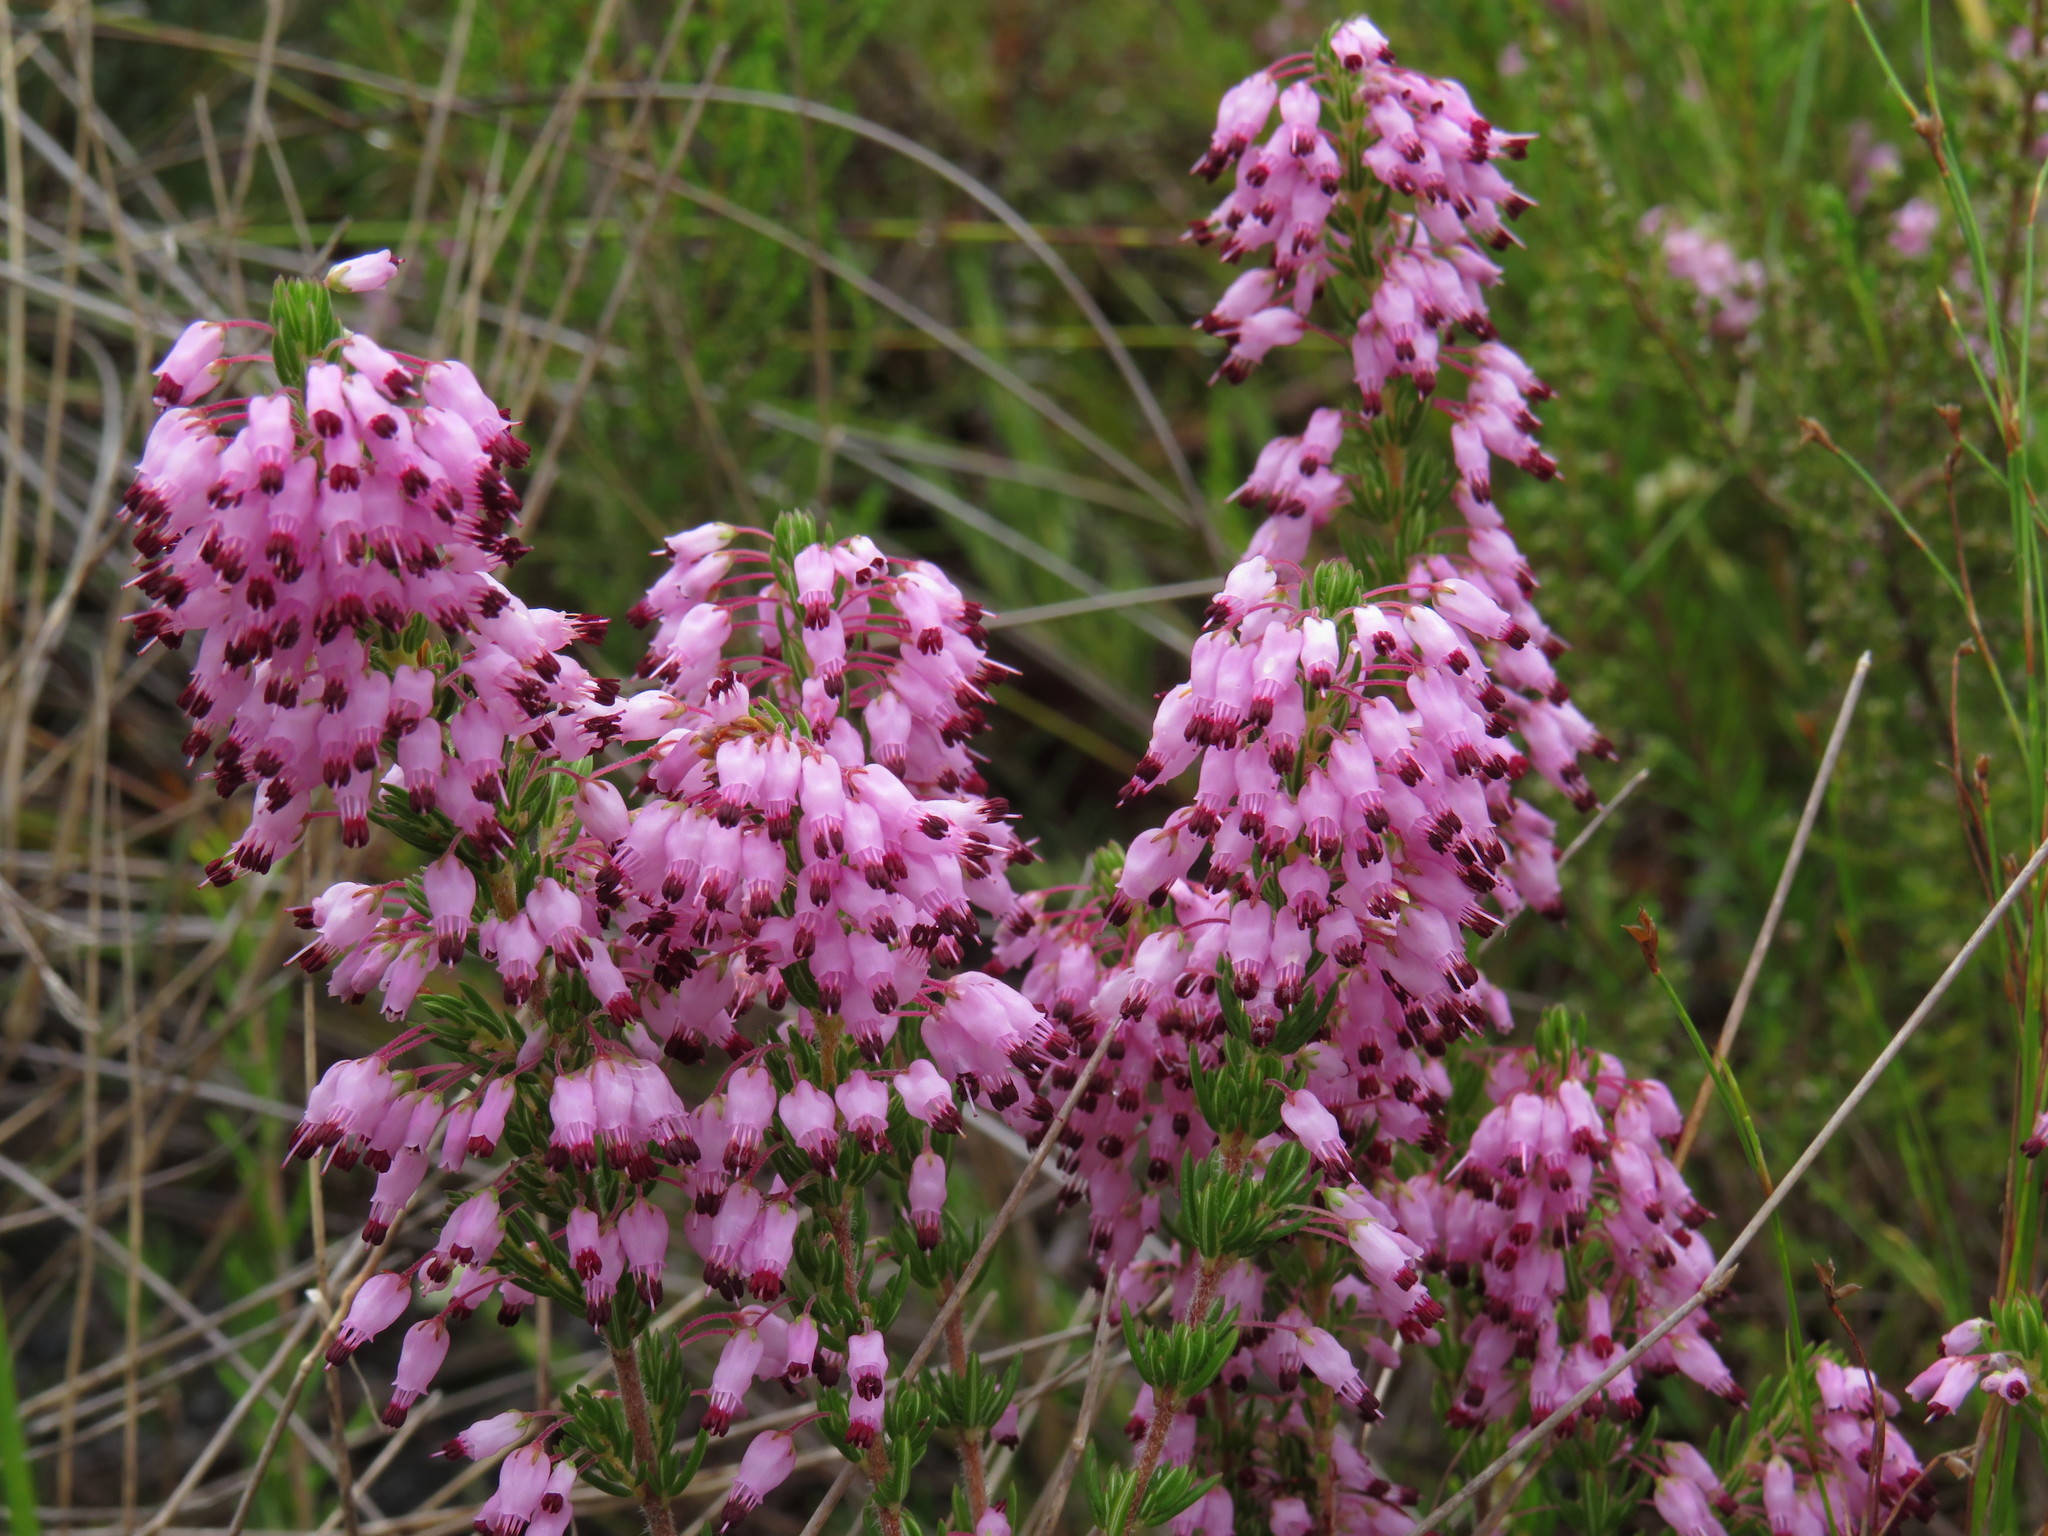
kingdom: Plantae
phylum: Tracheophyta
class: Magnoliopsida
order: Ericales
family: Ericaceae
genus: Erica
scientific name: Erica nudiflora
